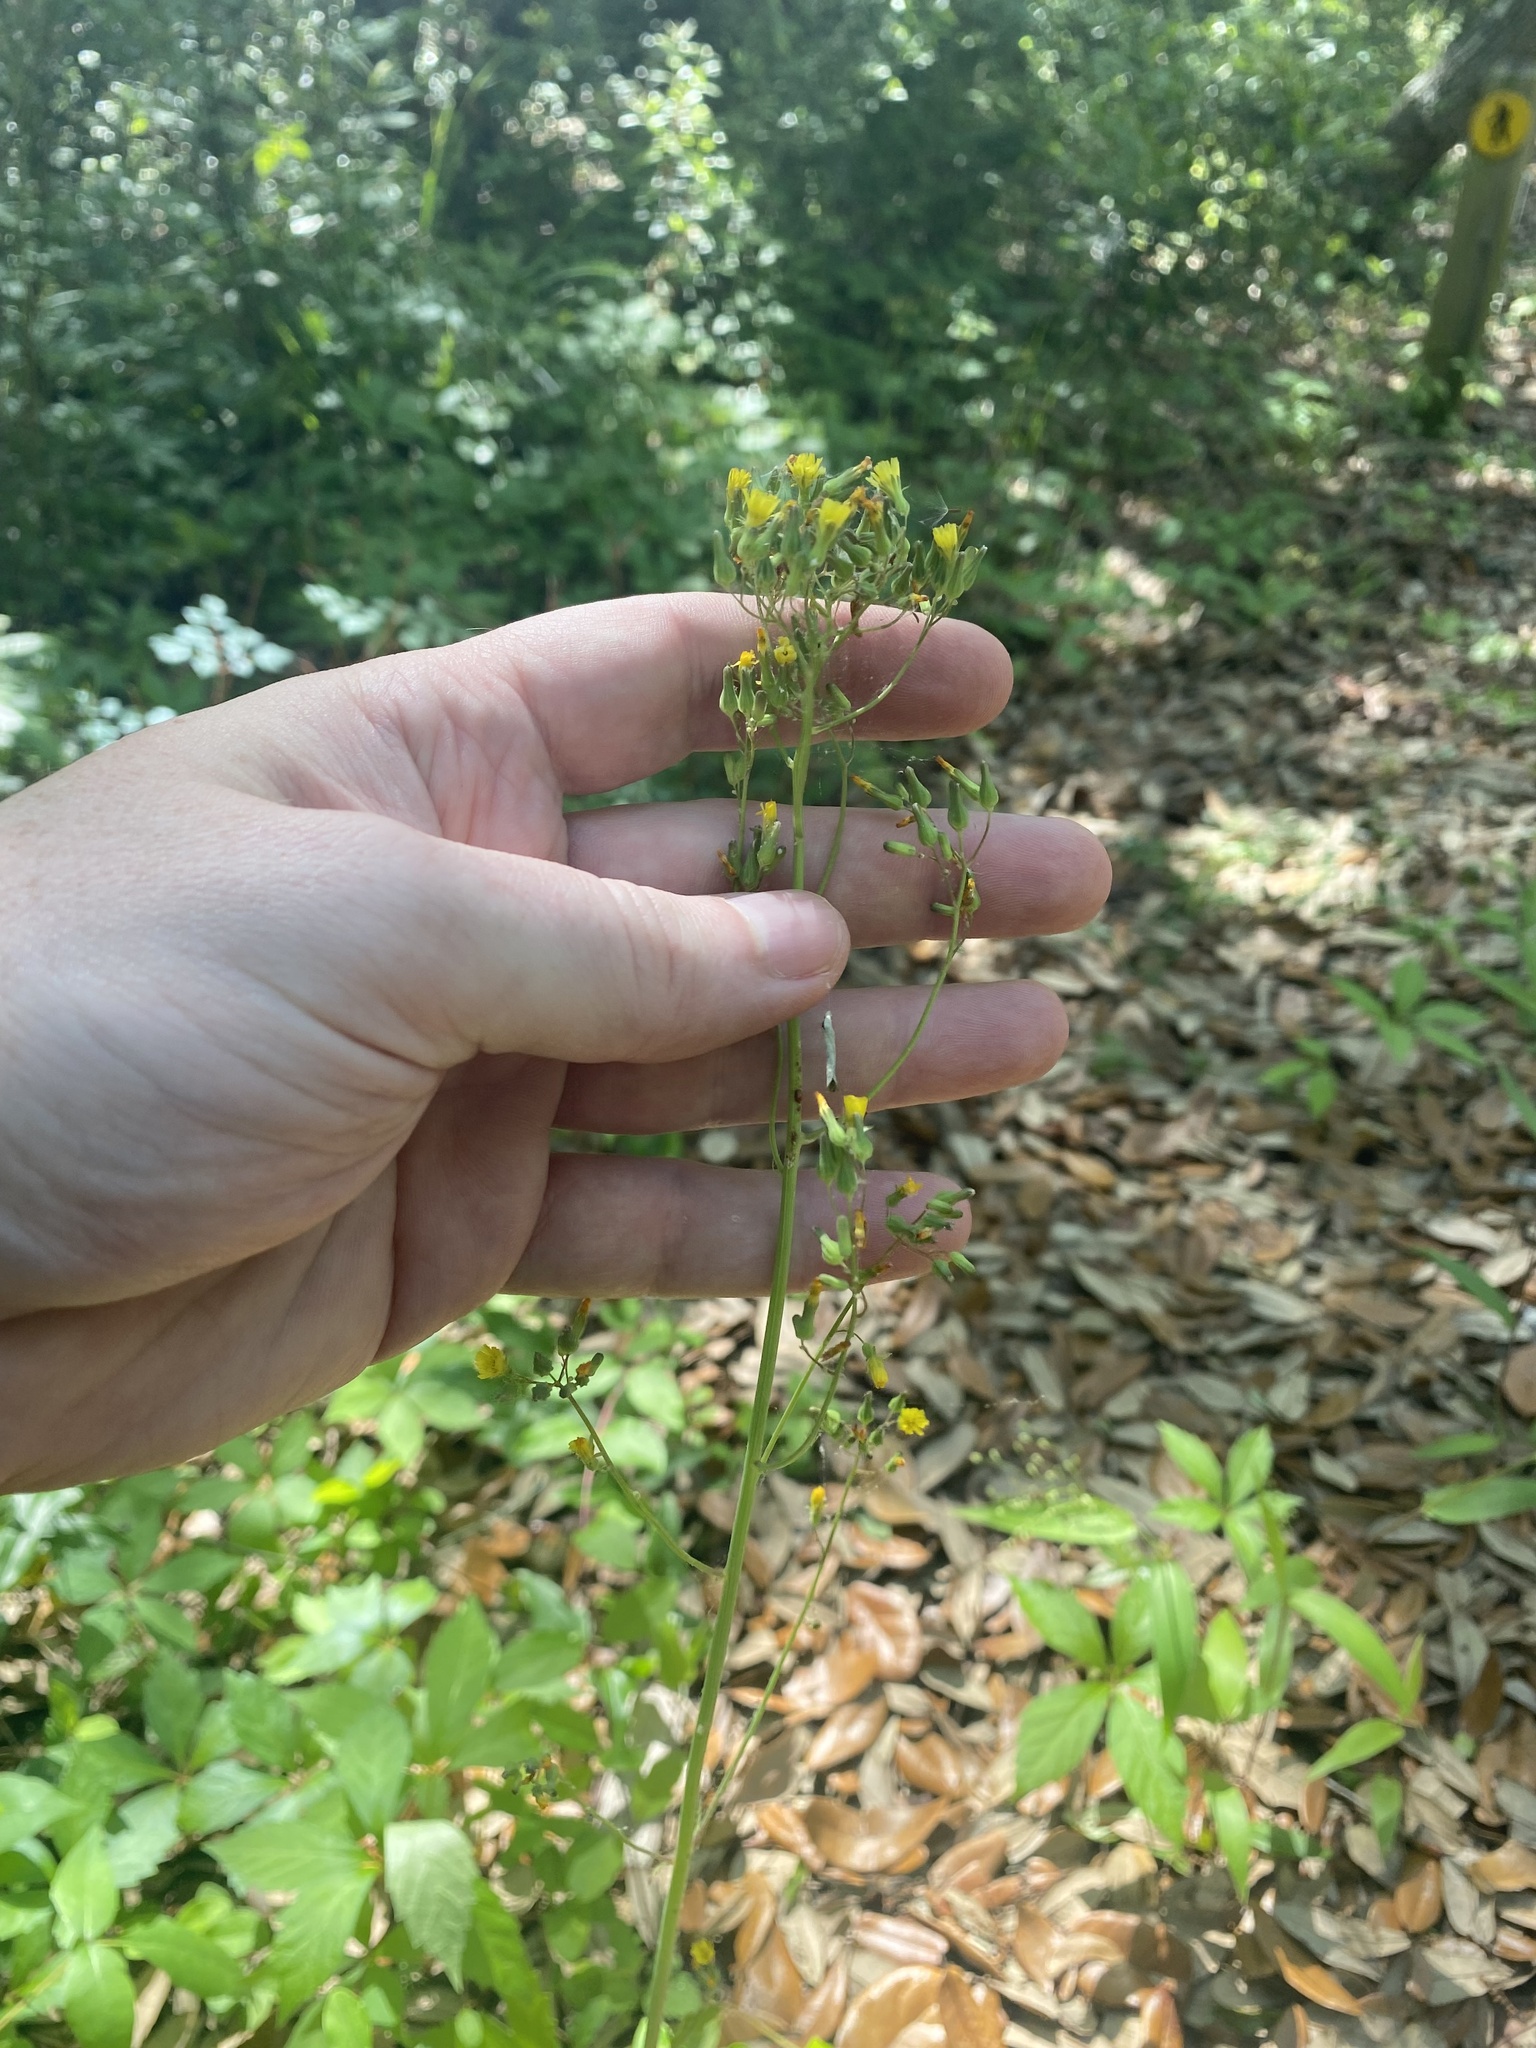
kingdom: Plantae
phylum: Tracheophyta
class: Magnoliopsida
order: Asterales
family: Asteraceae
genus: Youngia
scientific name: Youngia japonica
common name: Oriental false hawksbeard
